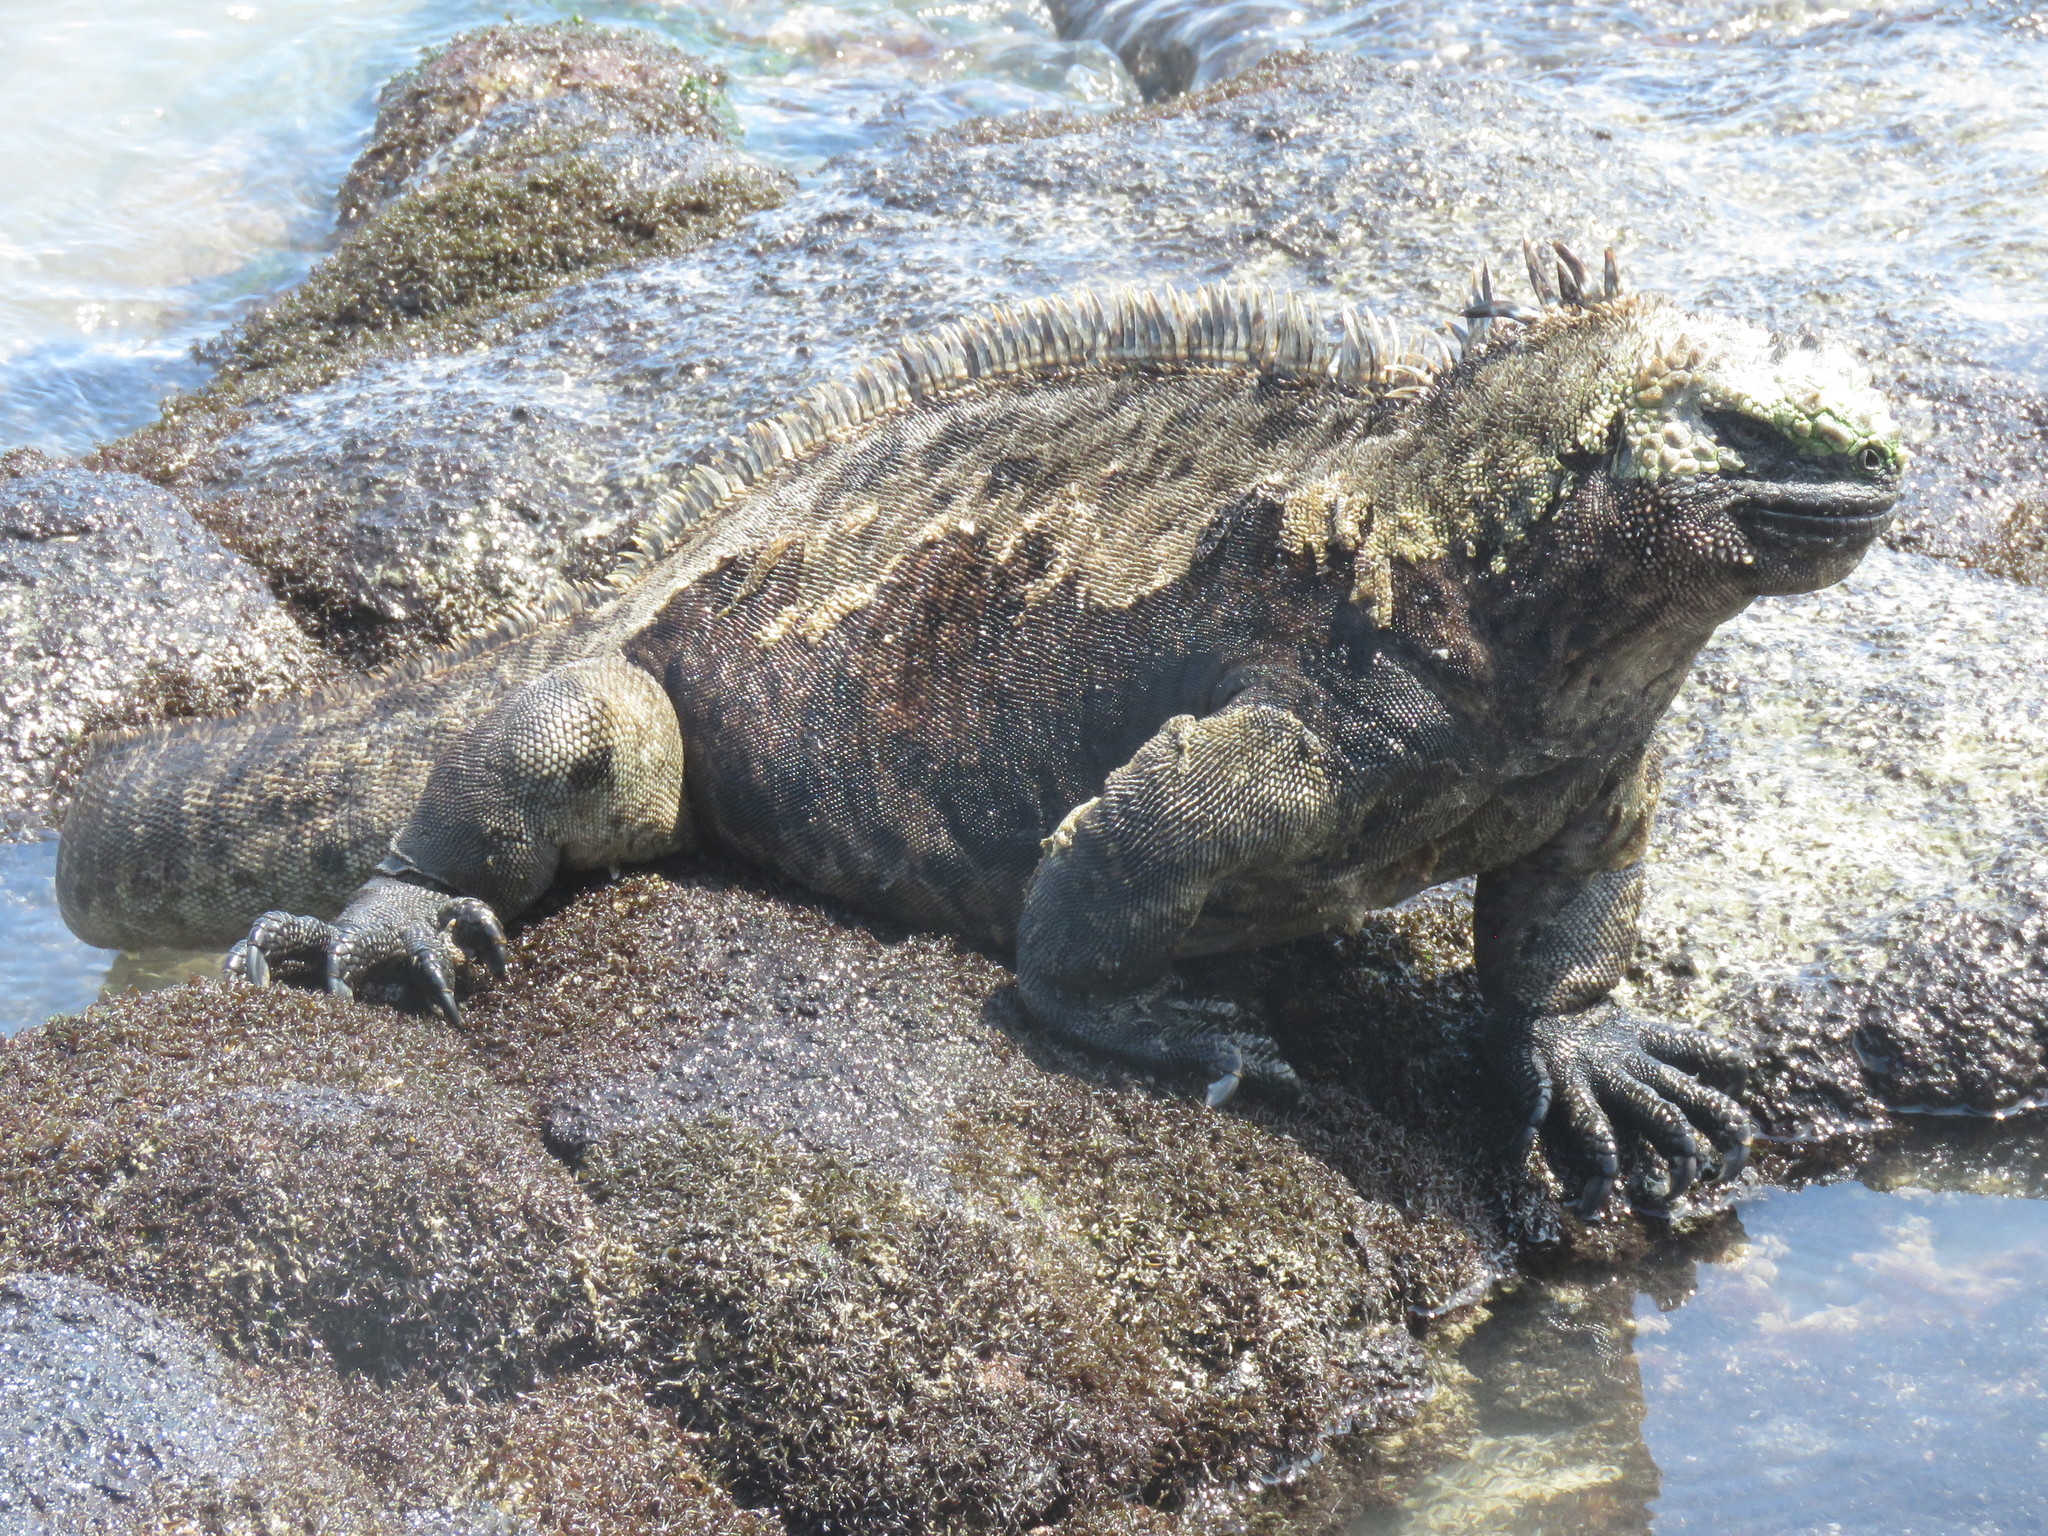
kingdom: Animalia
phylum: Chordata
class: Squamata
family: Iguanidae
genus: Amblyrhynchus
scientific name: Amblyrhynchus cristatus
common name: Marine iguana
